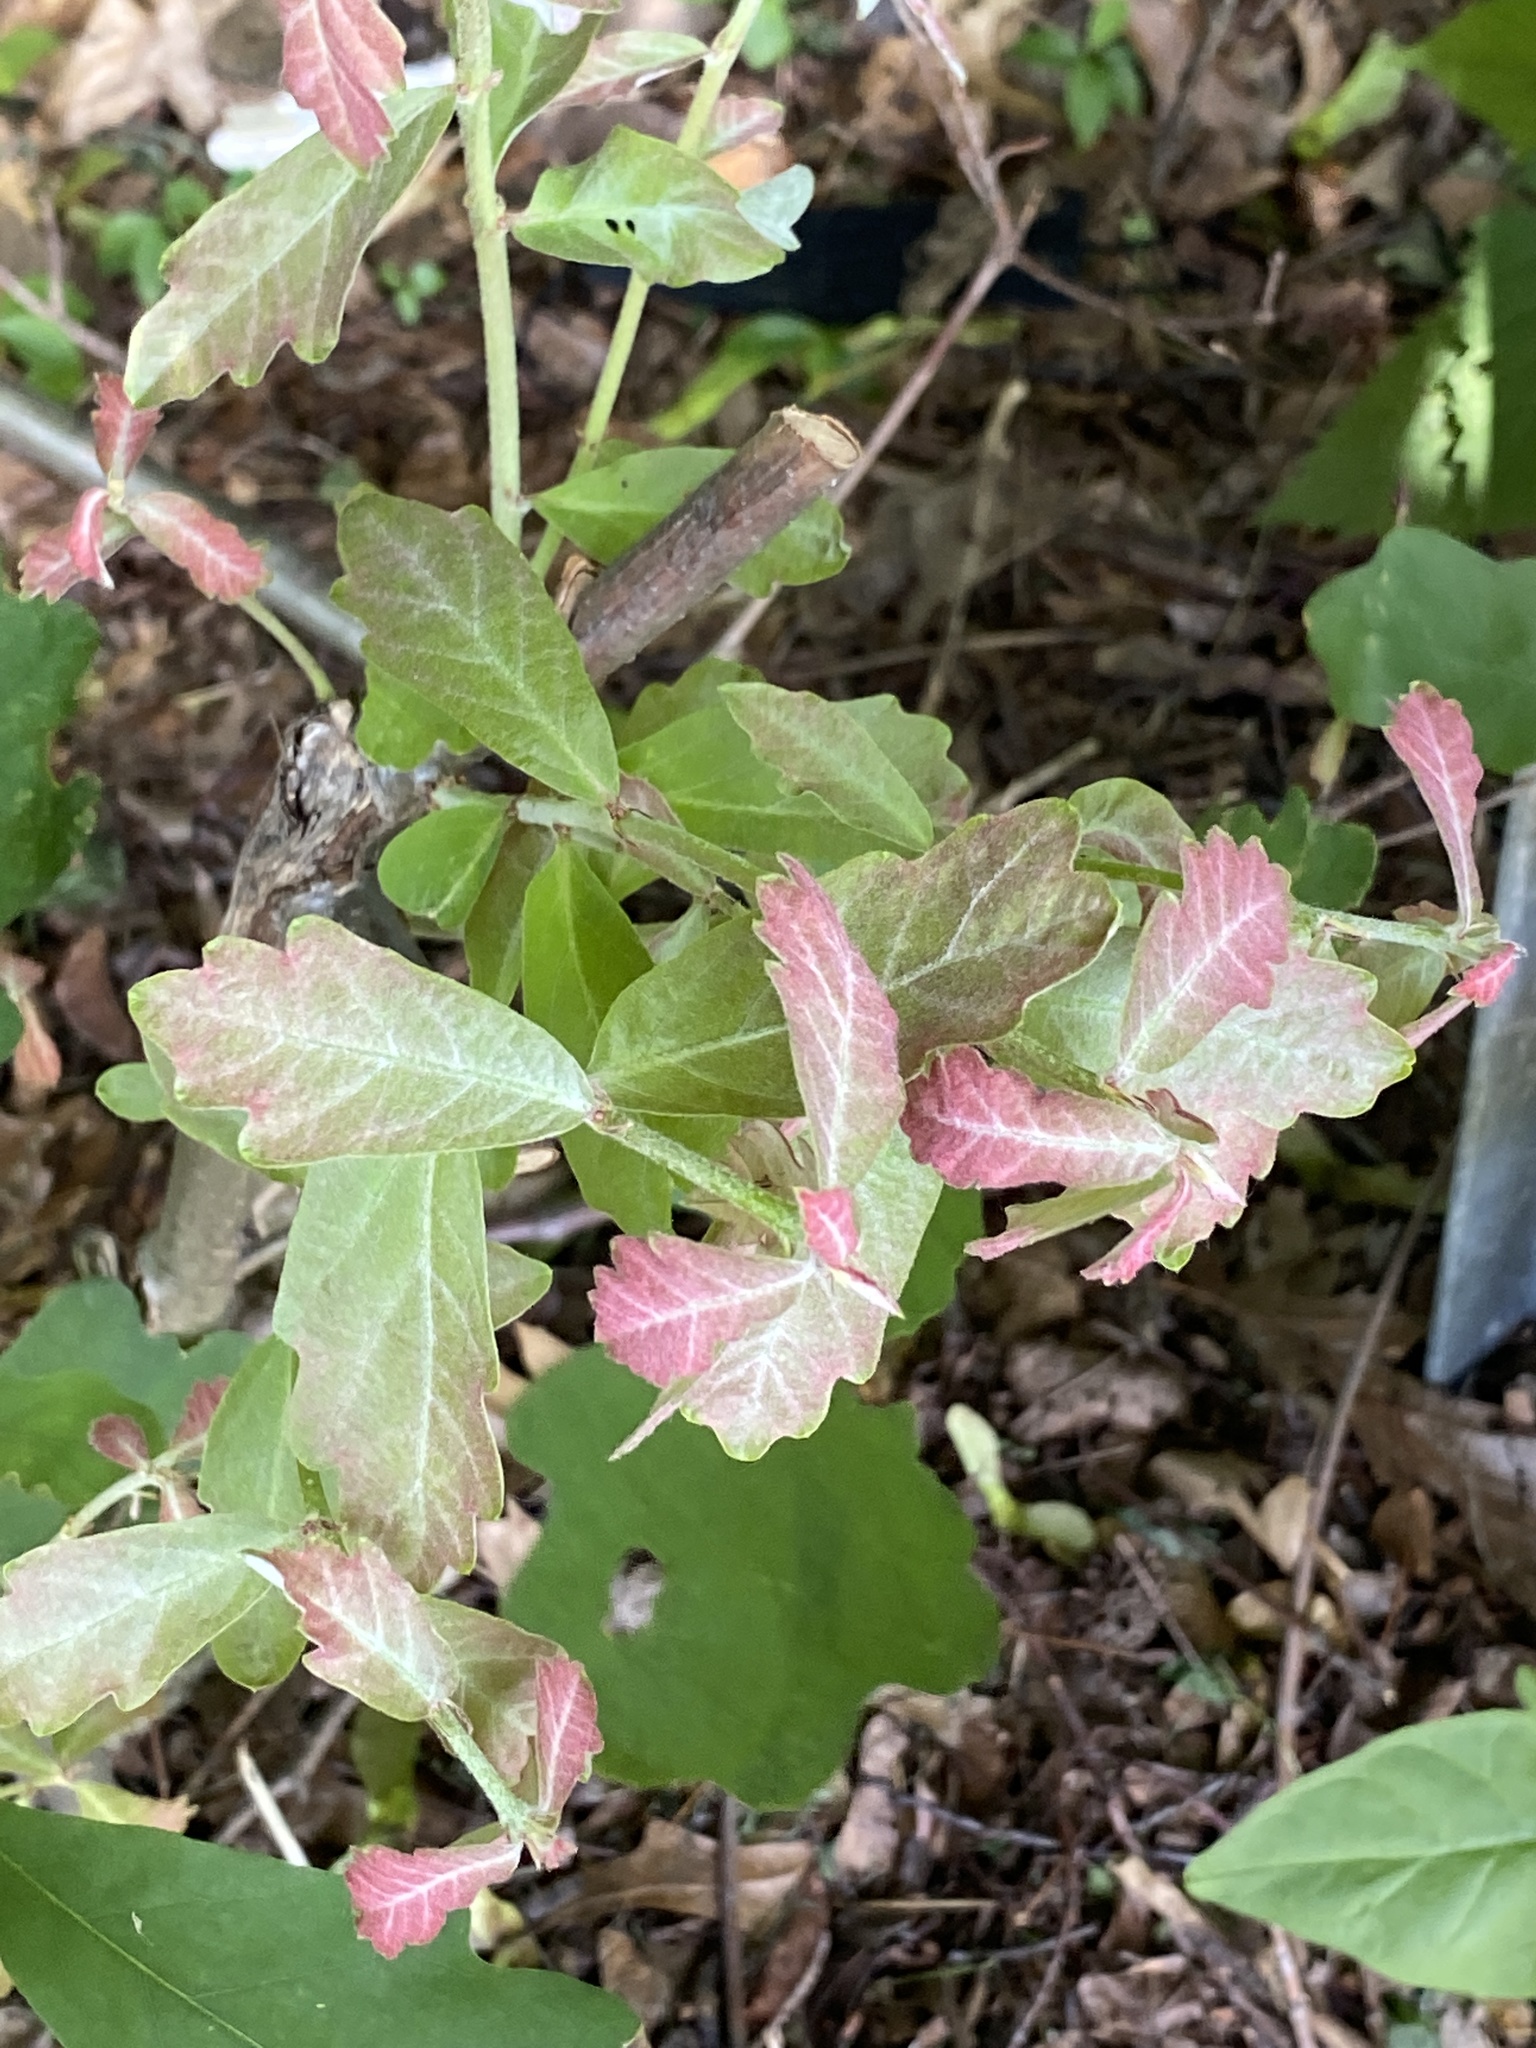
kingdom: Plantae
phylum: Tracheophyta
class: Magnoliopsida
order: Fagales
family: Fagaceae
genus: Quercus
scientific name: Quercus alba
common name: White oak
